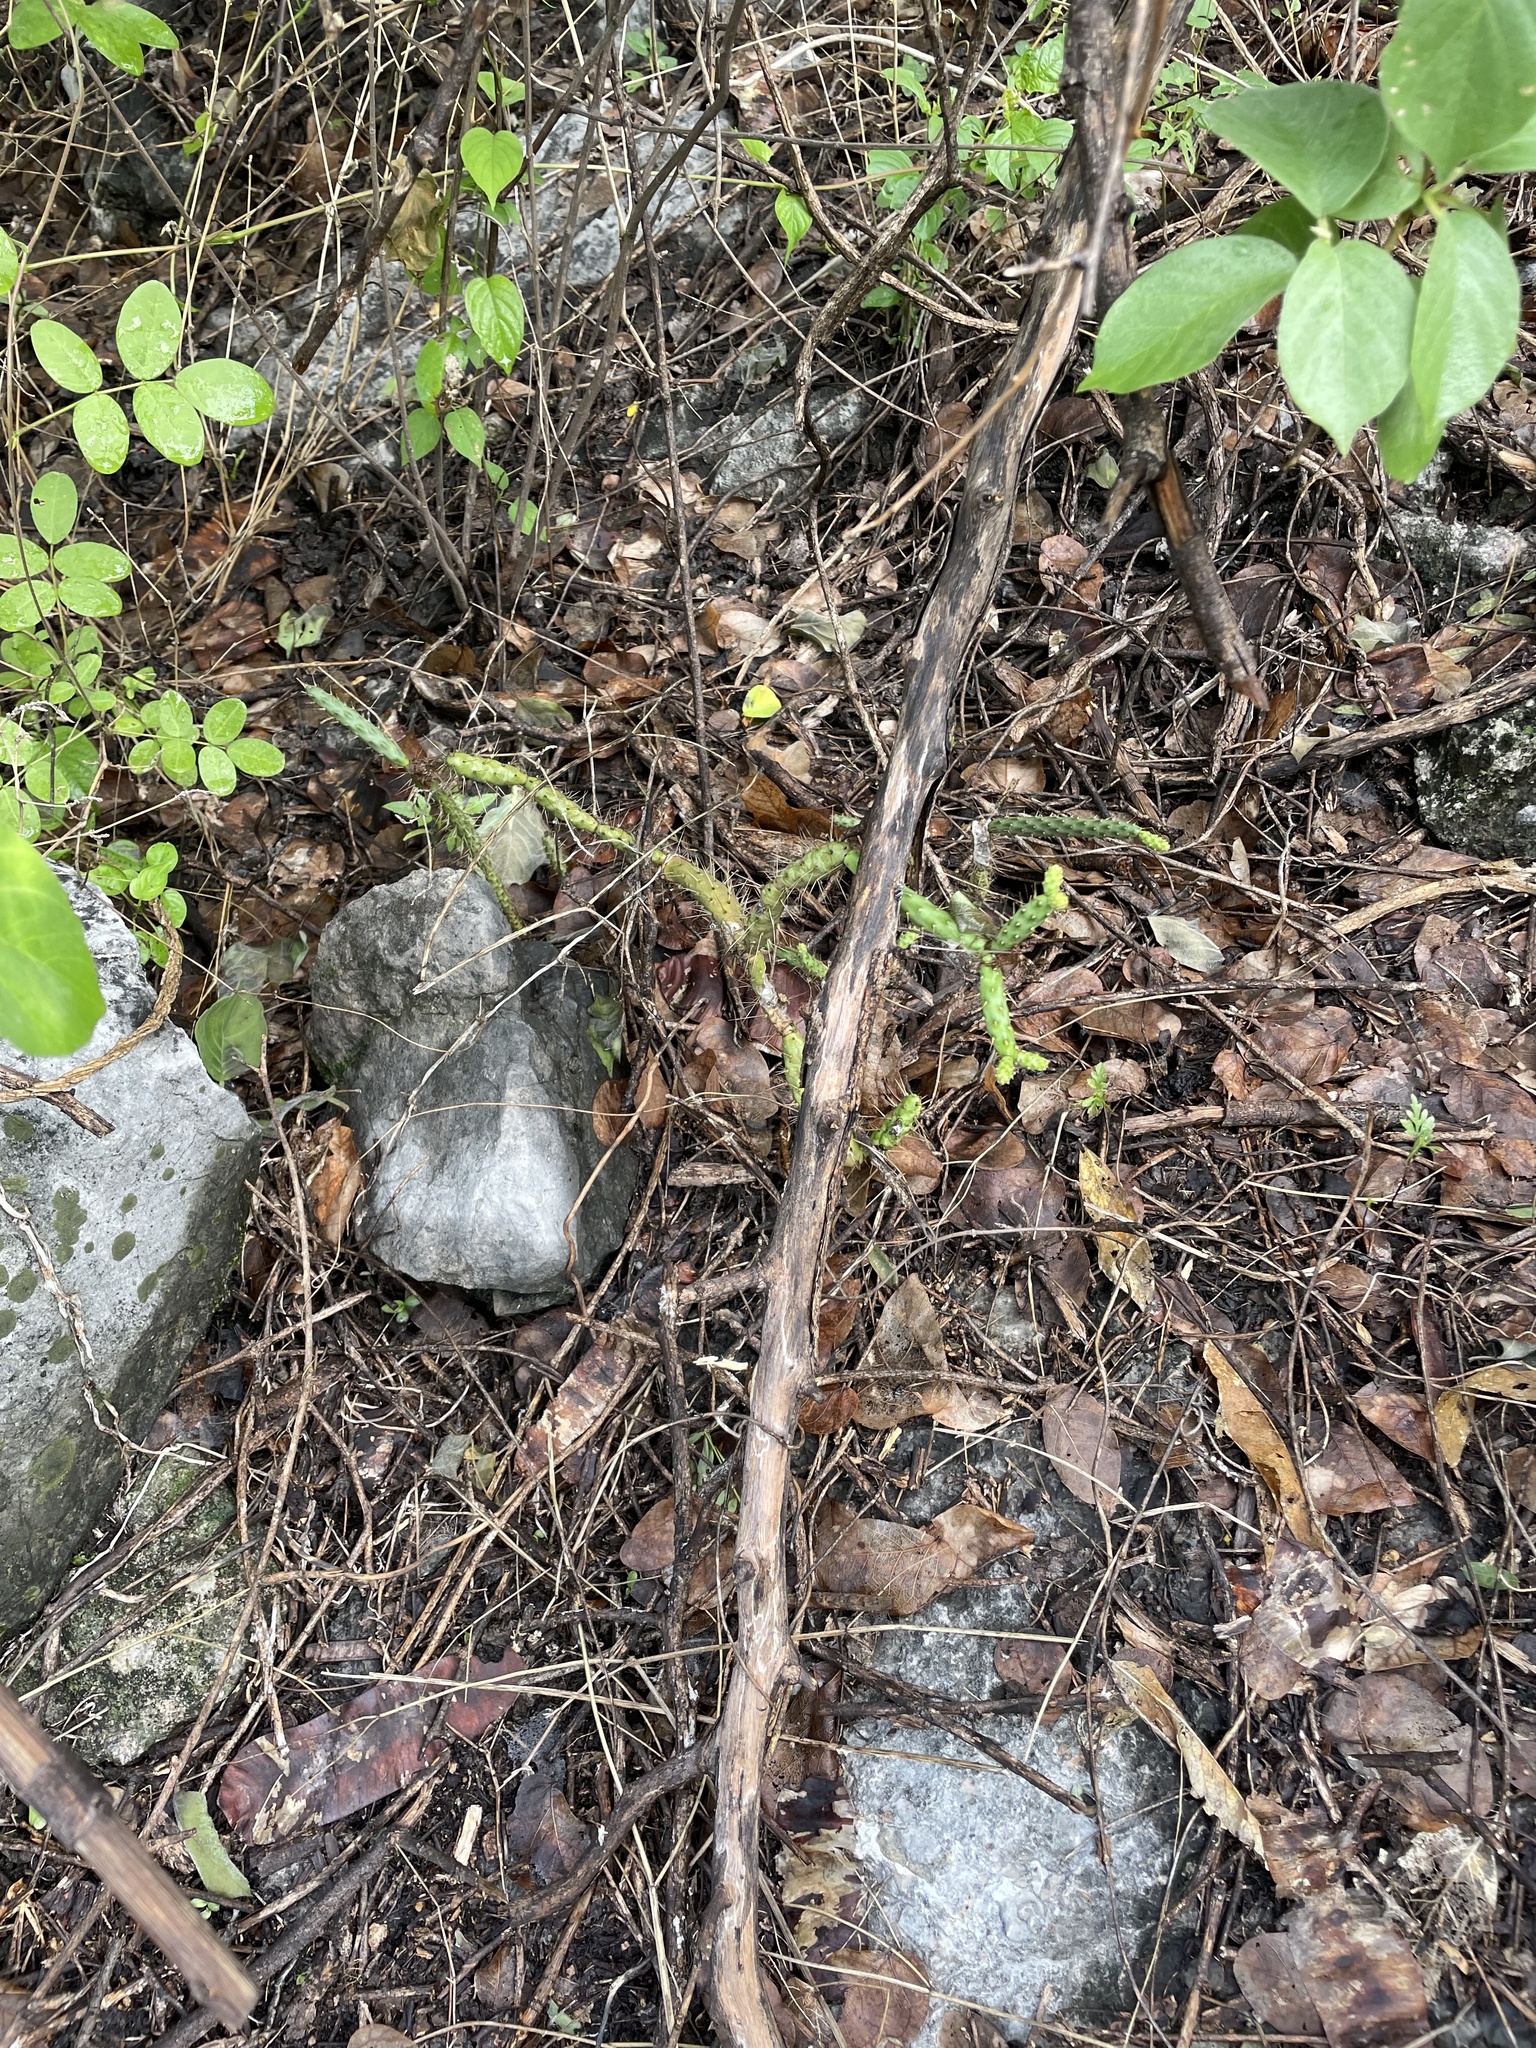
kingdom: Plantae
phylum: Tracheophyta
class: Magnoliopsida
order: Caryophyllales
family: Cactaceae
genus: Opuntia
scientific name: Opuntia pubescens
